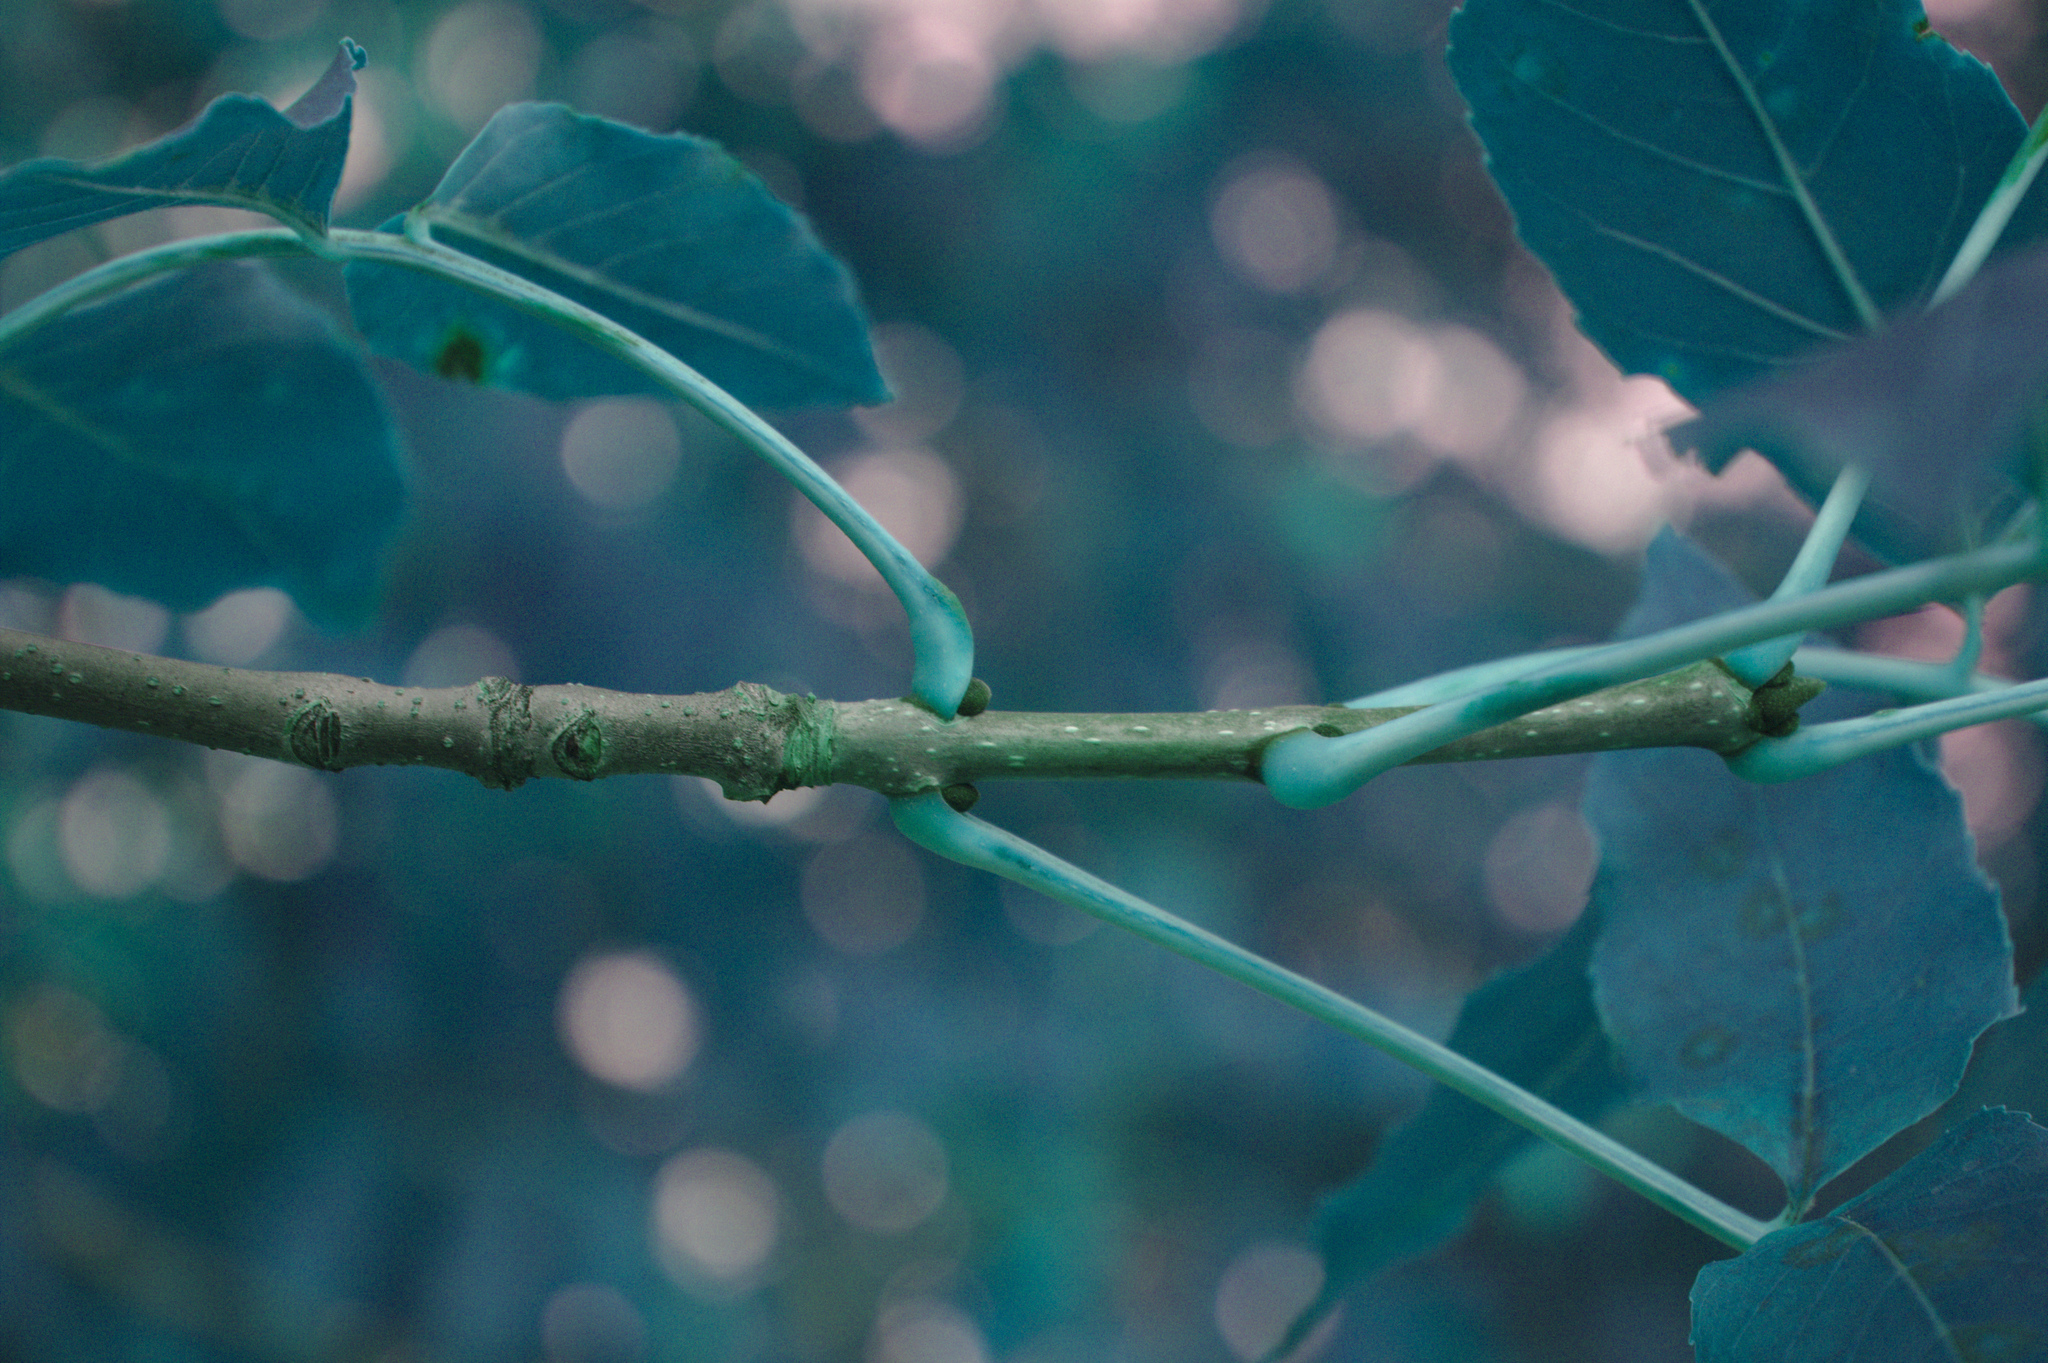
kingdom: Plantae
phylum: Tracheophyta
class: Magnoliopsida
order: Lamiales
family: Oleaceae
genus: Fraxinus
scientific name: Fraxinus pennsylvanica
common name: Green ash
